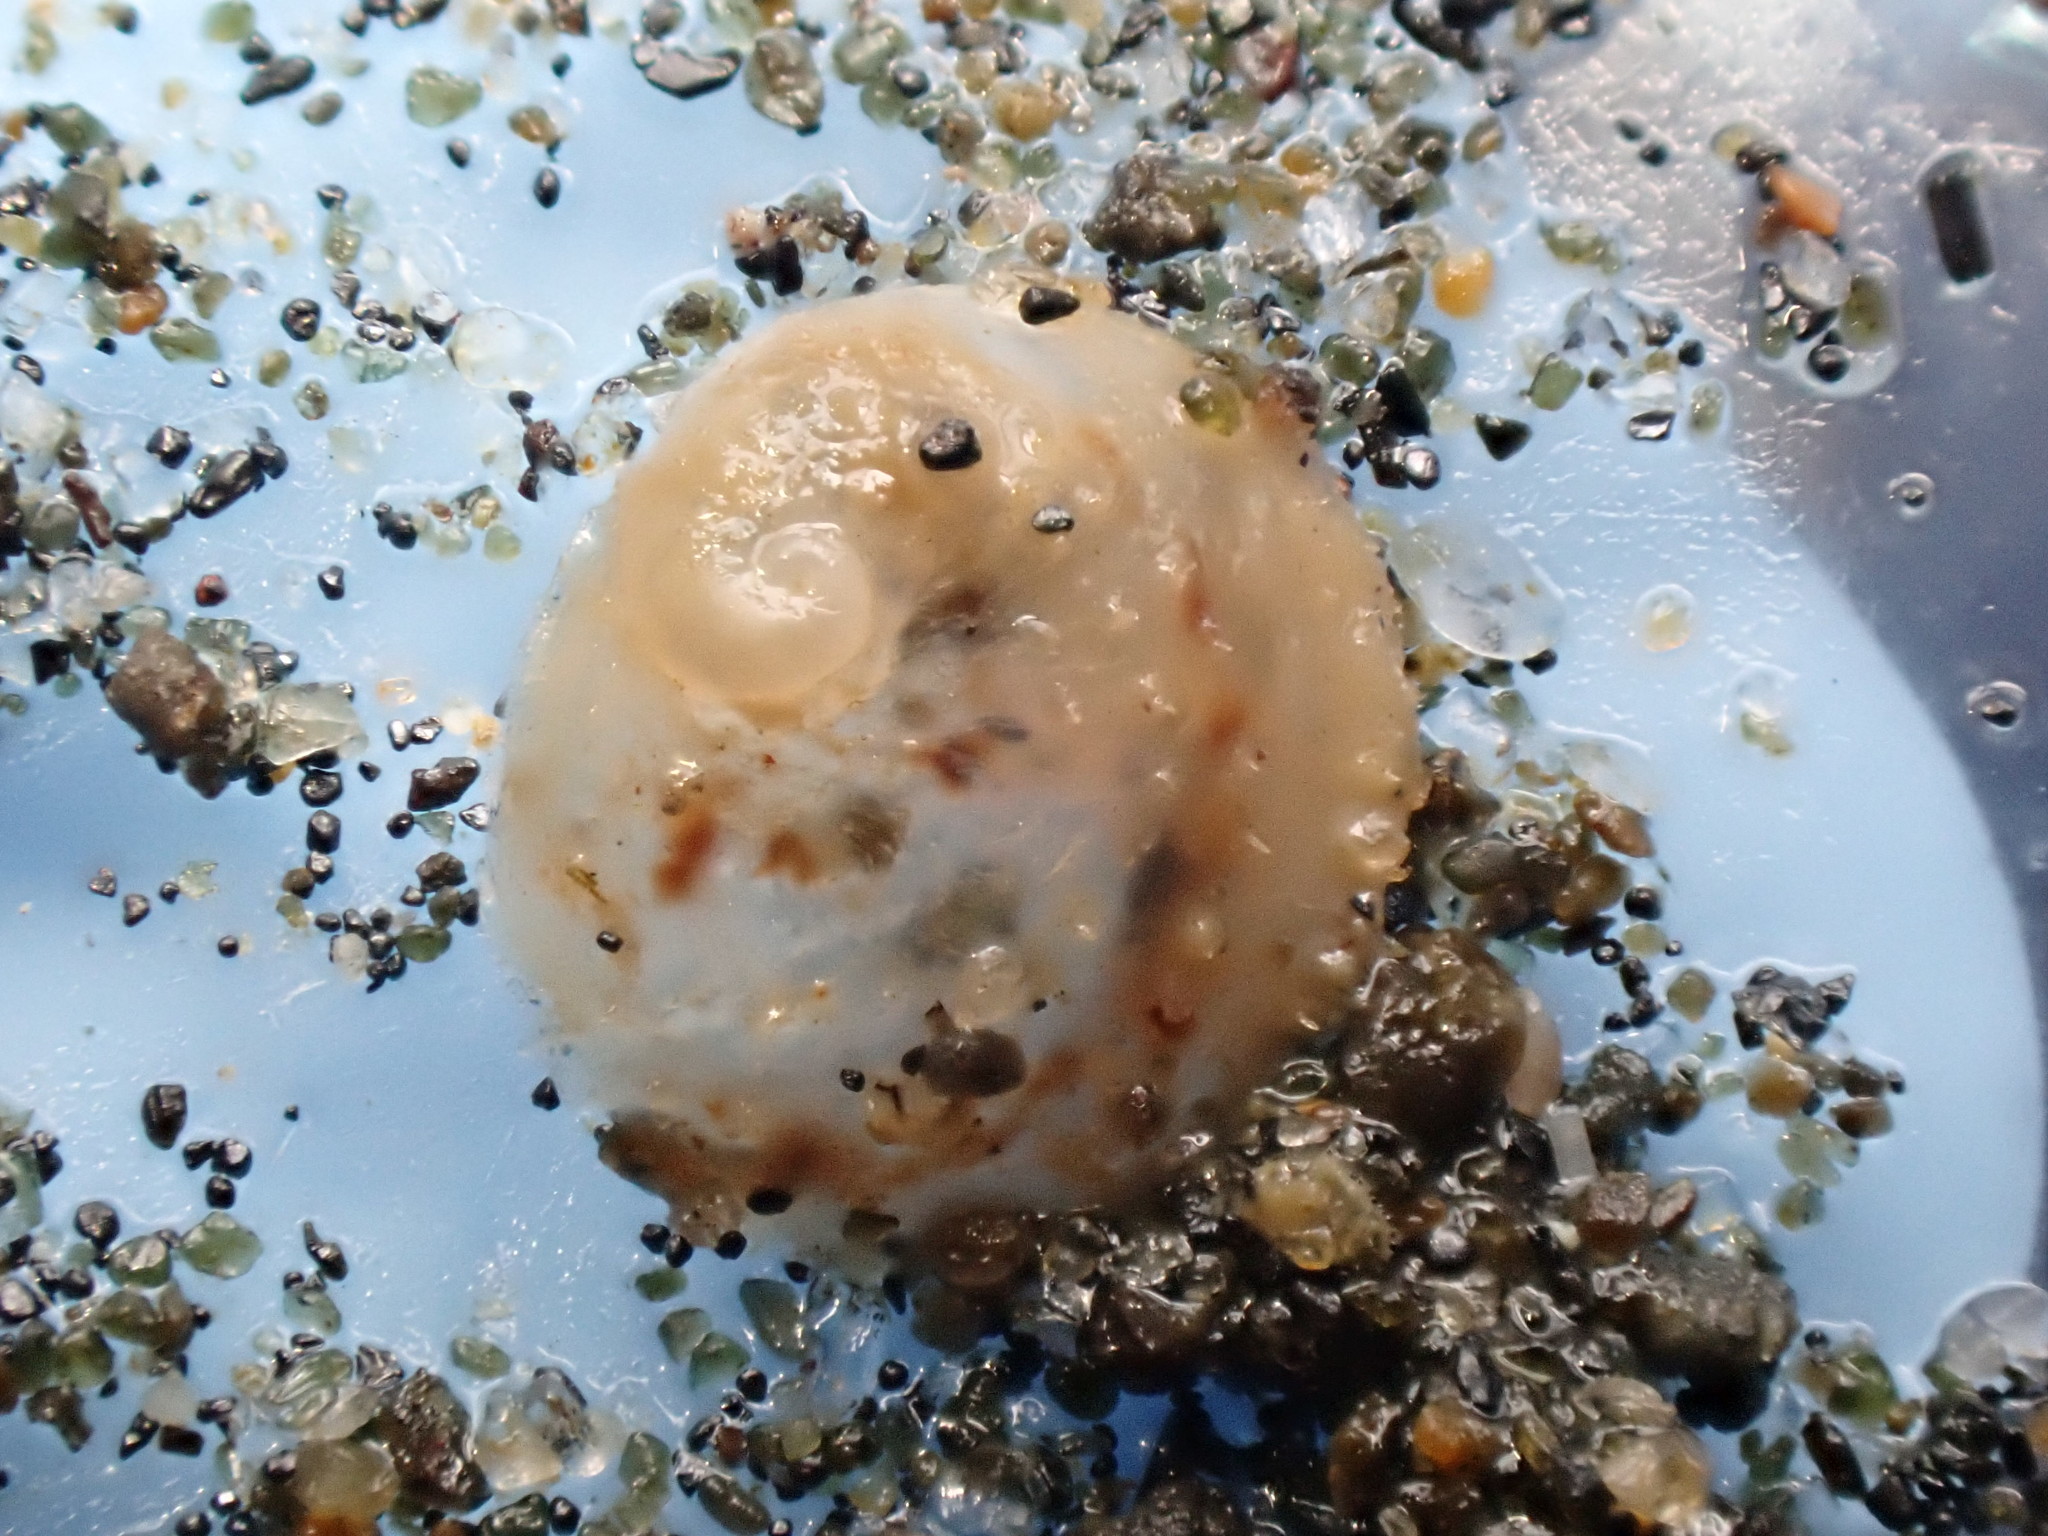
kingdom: Animalia
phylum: Mollusca
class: Gastropoda
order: Littorinimorpha
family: Calyptraeidae
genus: Sigapatella
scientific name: Sigapatella novaezelandiae
